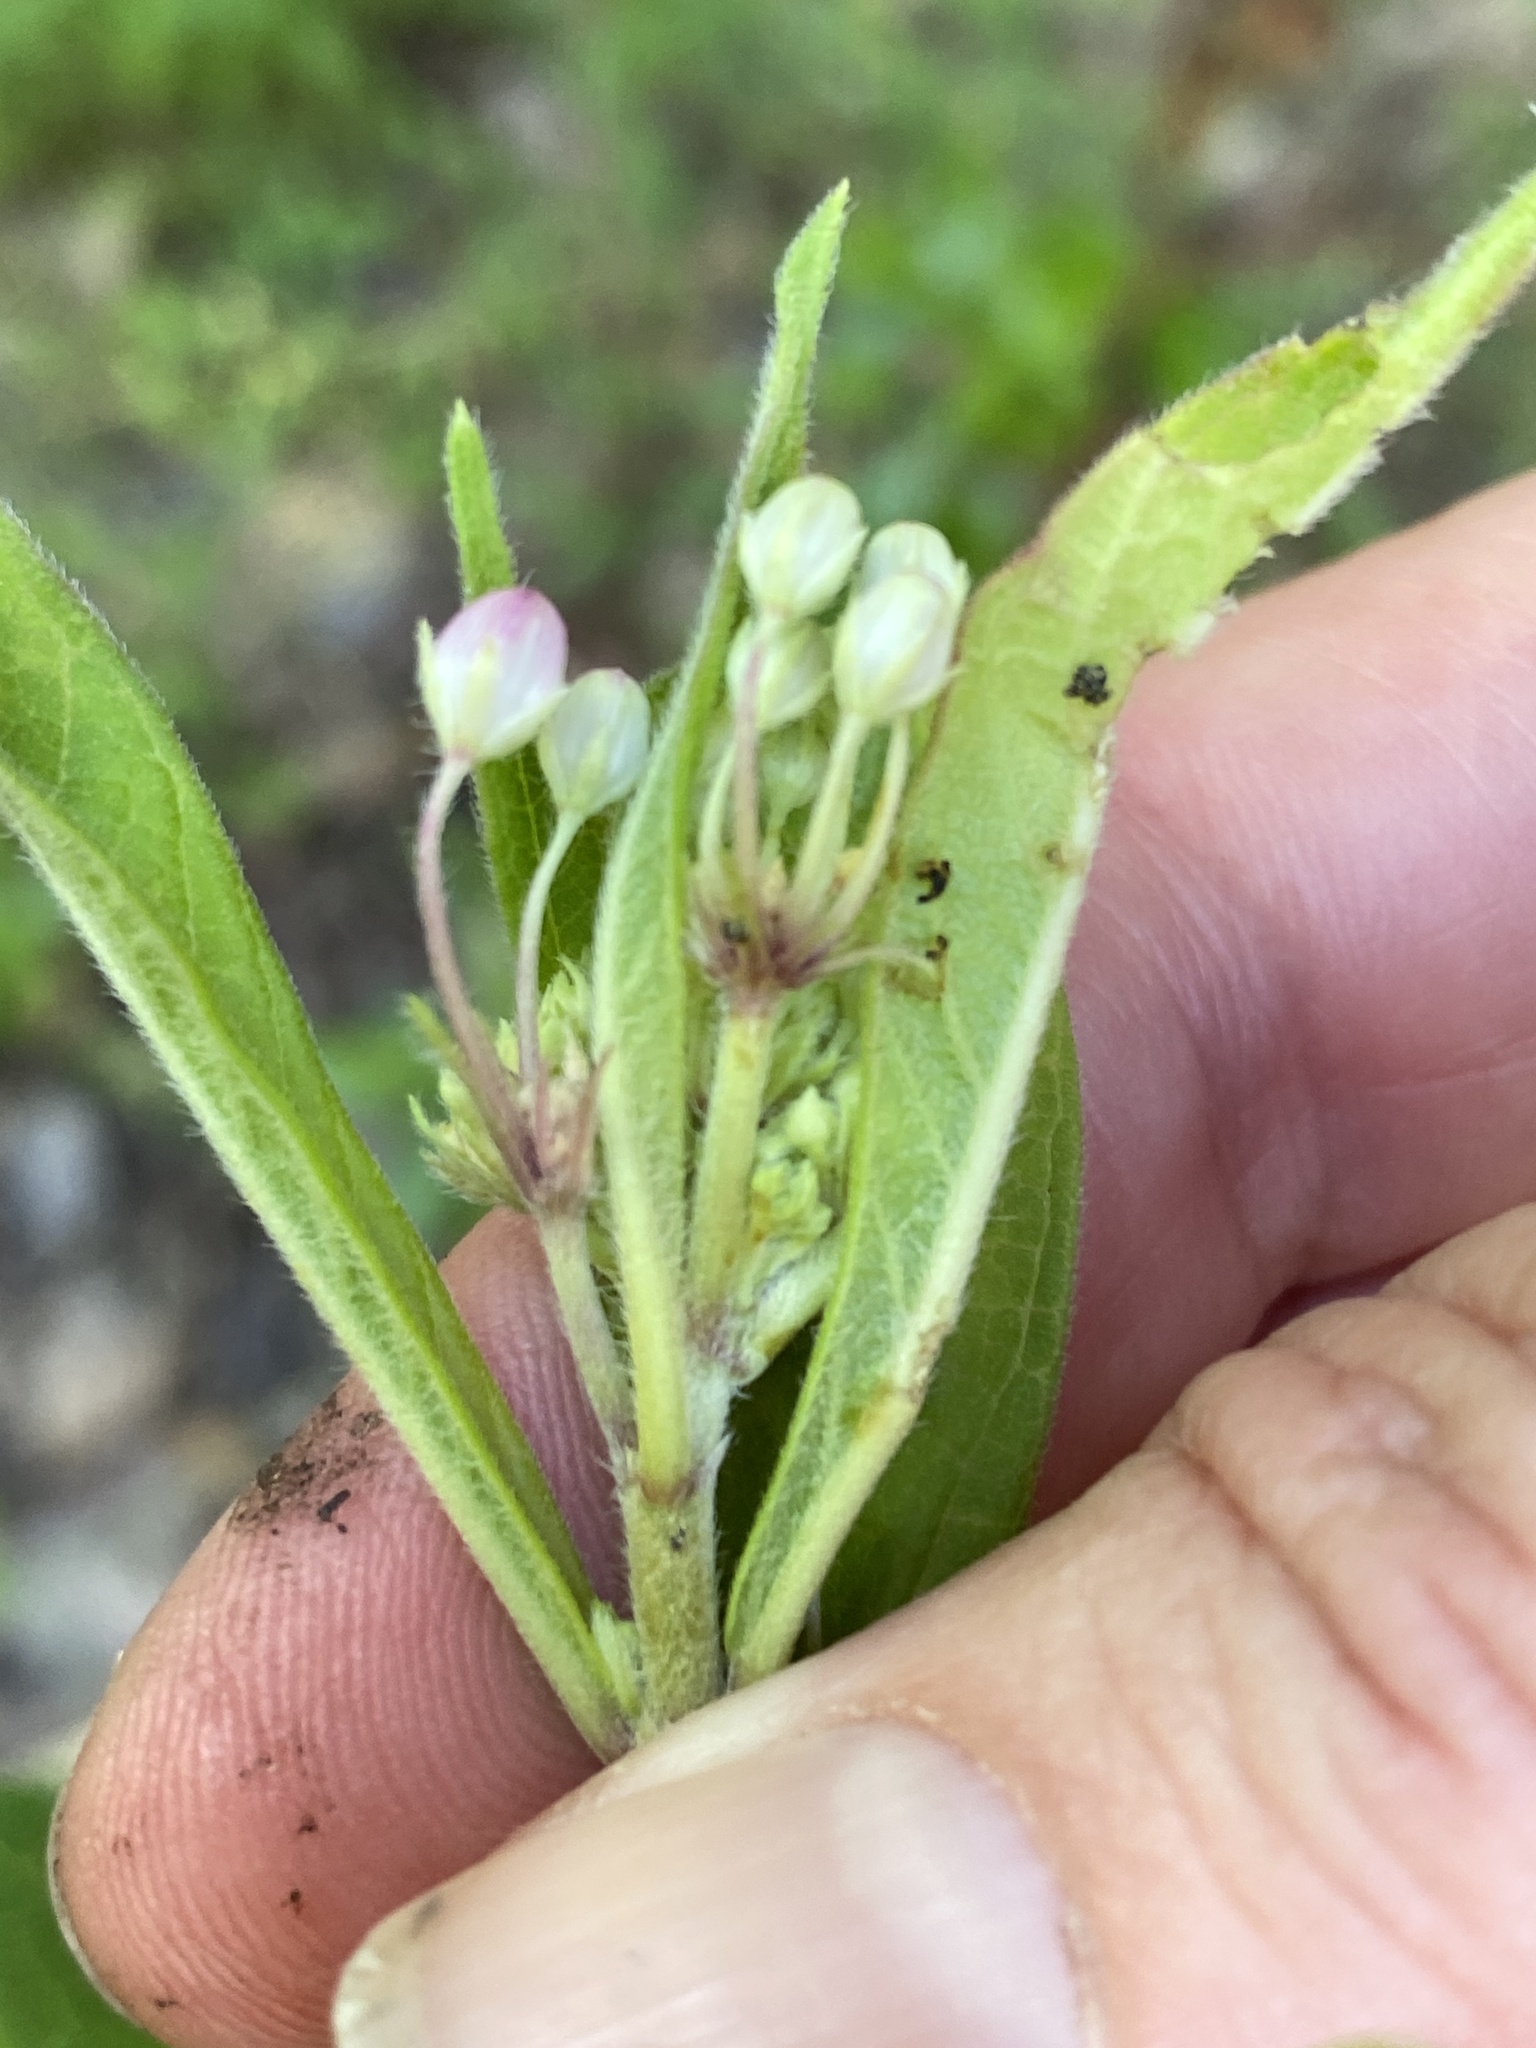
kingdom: Plantae
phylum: Tracheophyta
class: Magnoliopsida
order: Gentianales
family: Apocynaceae
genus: Asclepias
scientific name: Asclepias incarnata
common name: Swamp milkweed
